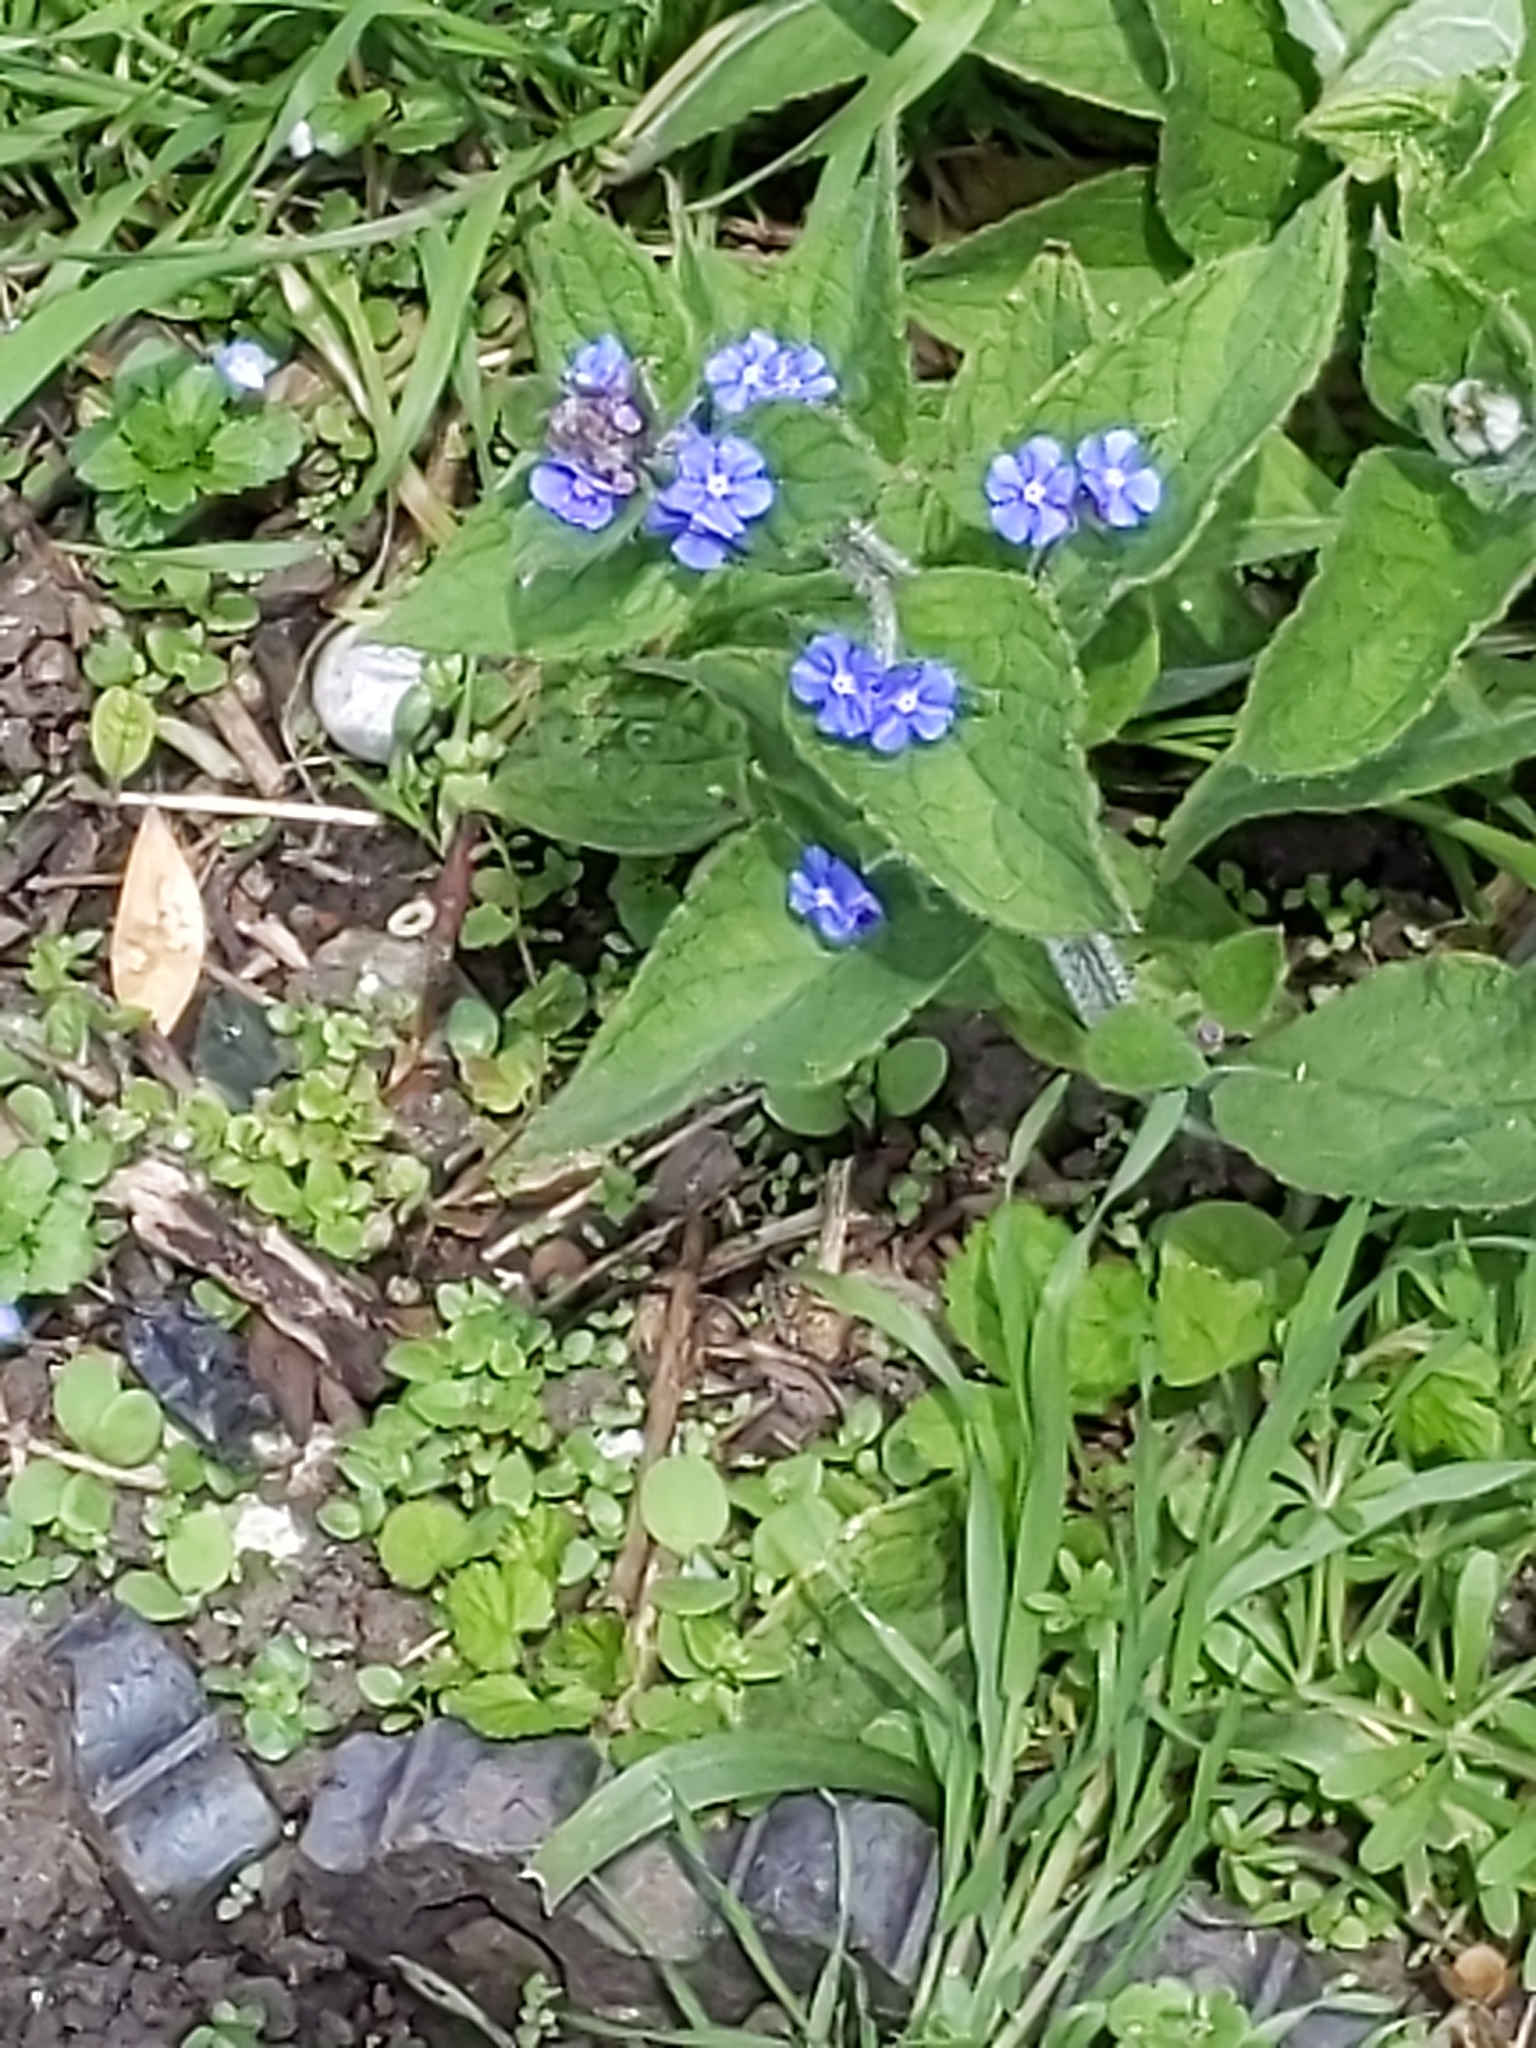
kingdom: Plantae
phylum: Tracheophyta
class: Magnoliopsida
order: Boraginales
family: Boraginaceae
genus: Pentaglottis
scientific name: Pentaglottis sempervirens
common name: Green alkanet
